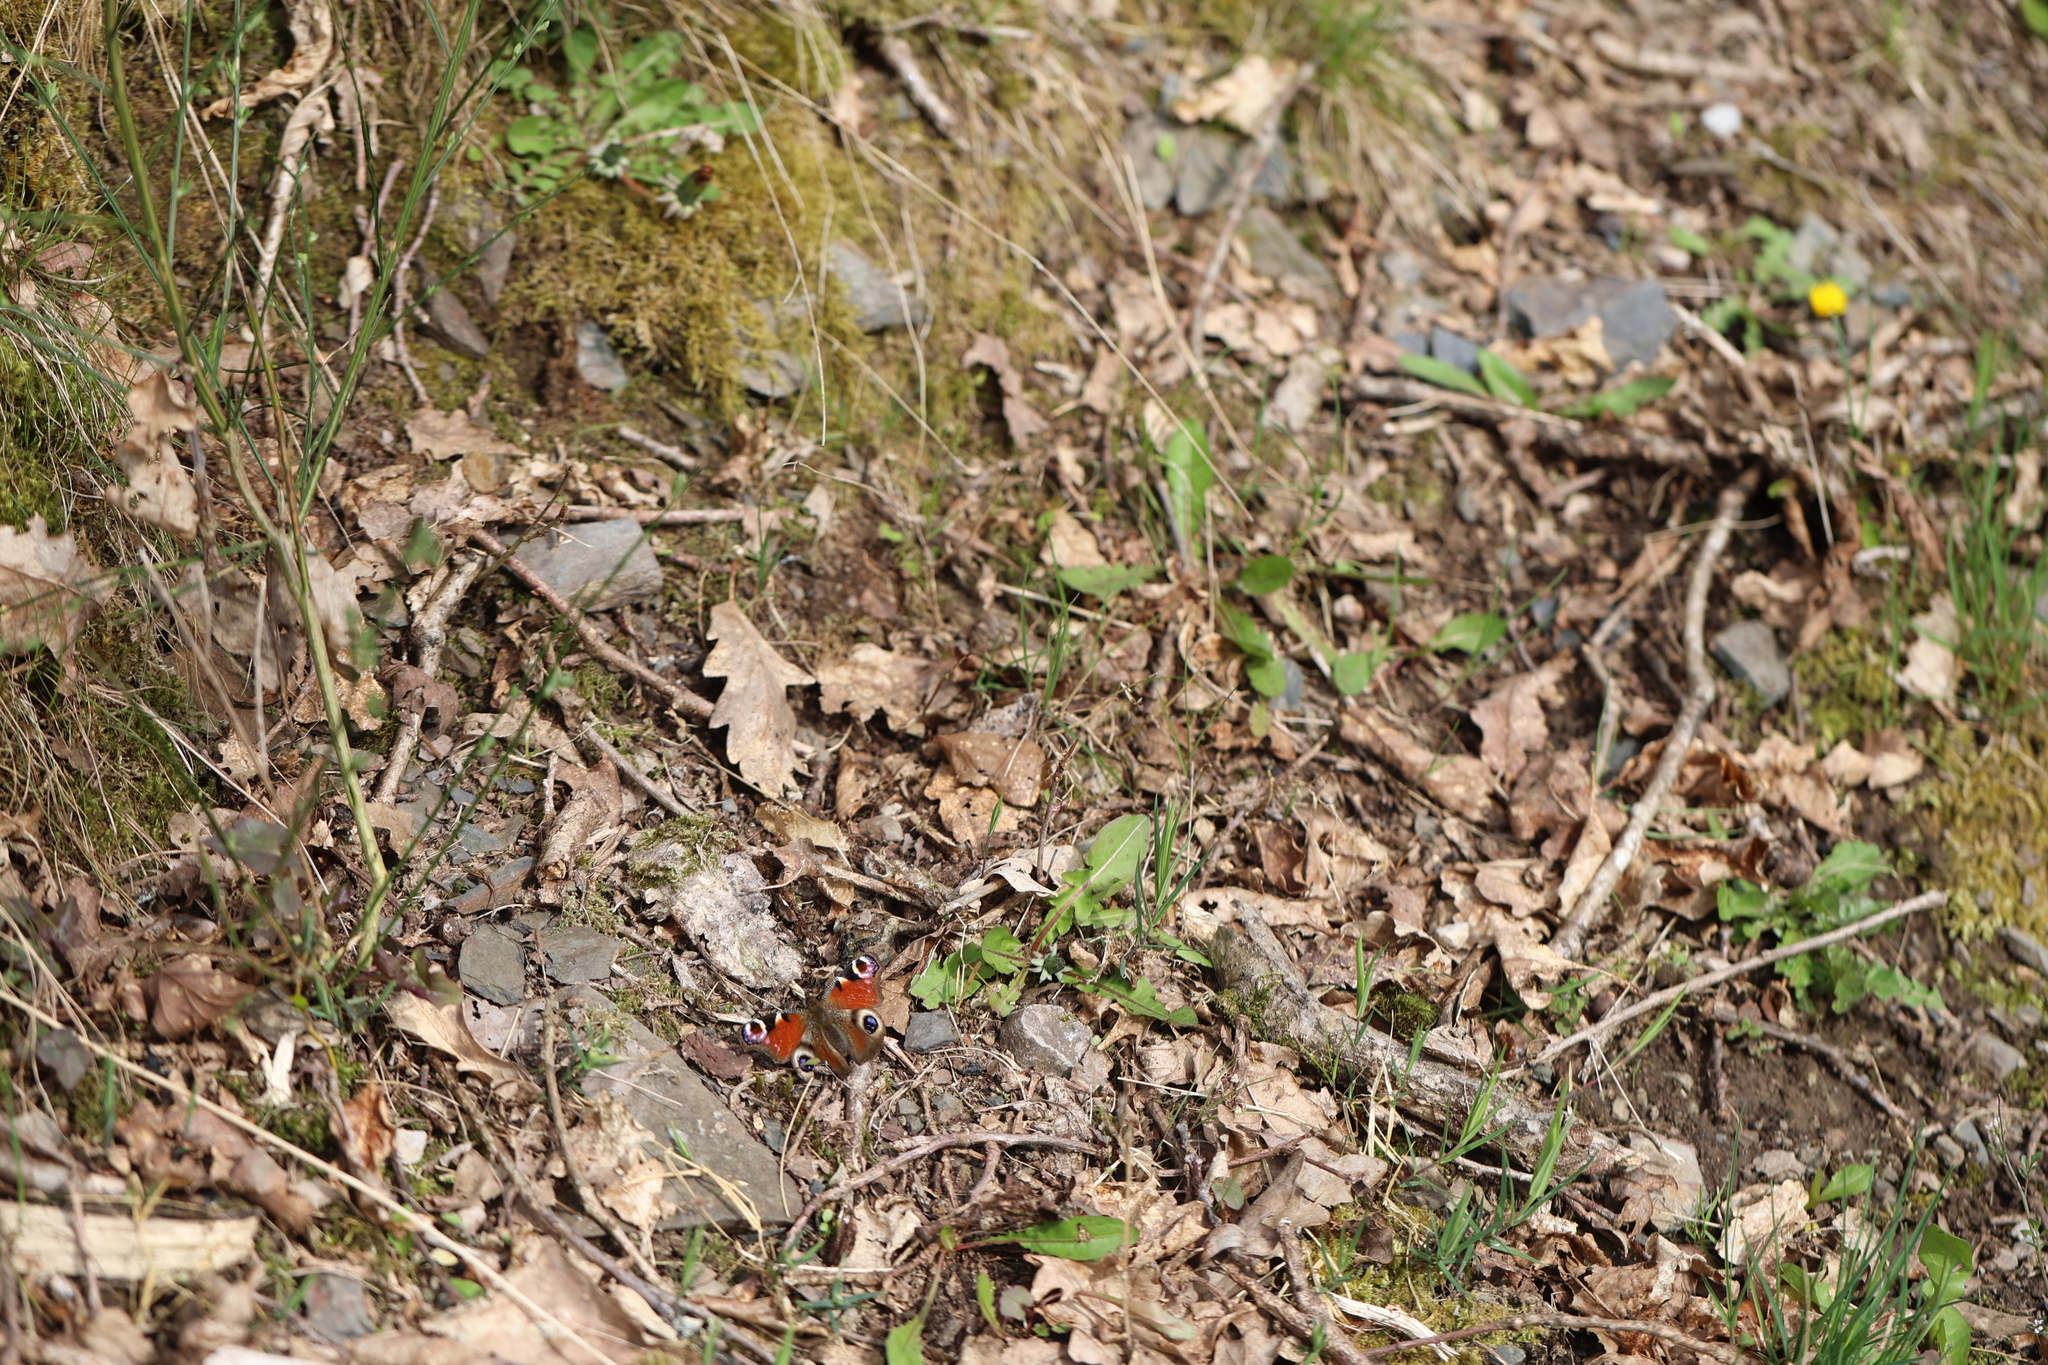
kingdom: Animalia
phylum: Arthropoda
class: Insecta
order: Lepidoptera
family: Nymphalidae
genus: Aglais
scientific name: Aglais io
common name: Peacock
